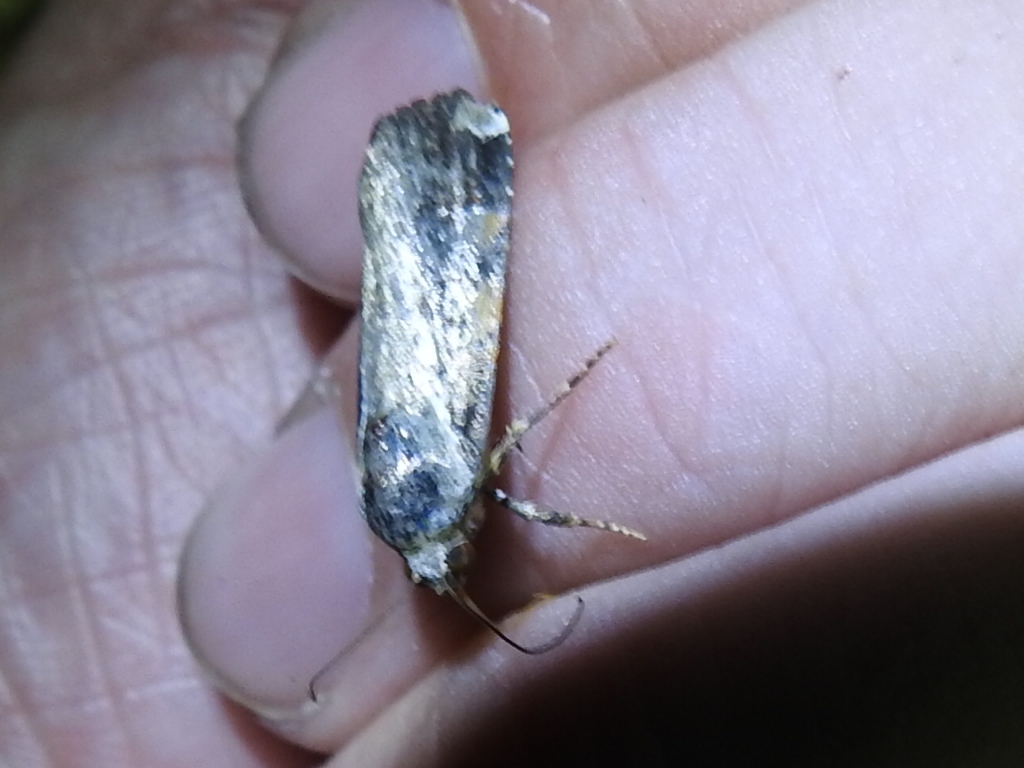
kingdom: Animalia
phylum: Arthropoda
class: Insecta
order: Lepidoptera
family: Noctuidae
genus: Magusa
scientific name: Magusa divaricata
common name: Orb narrow-winged moth
